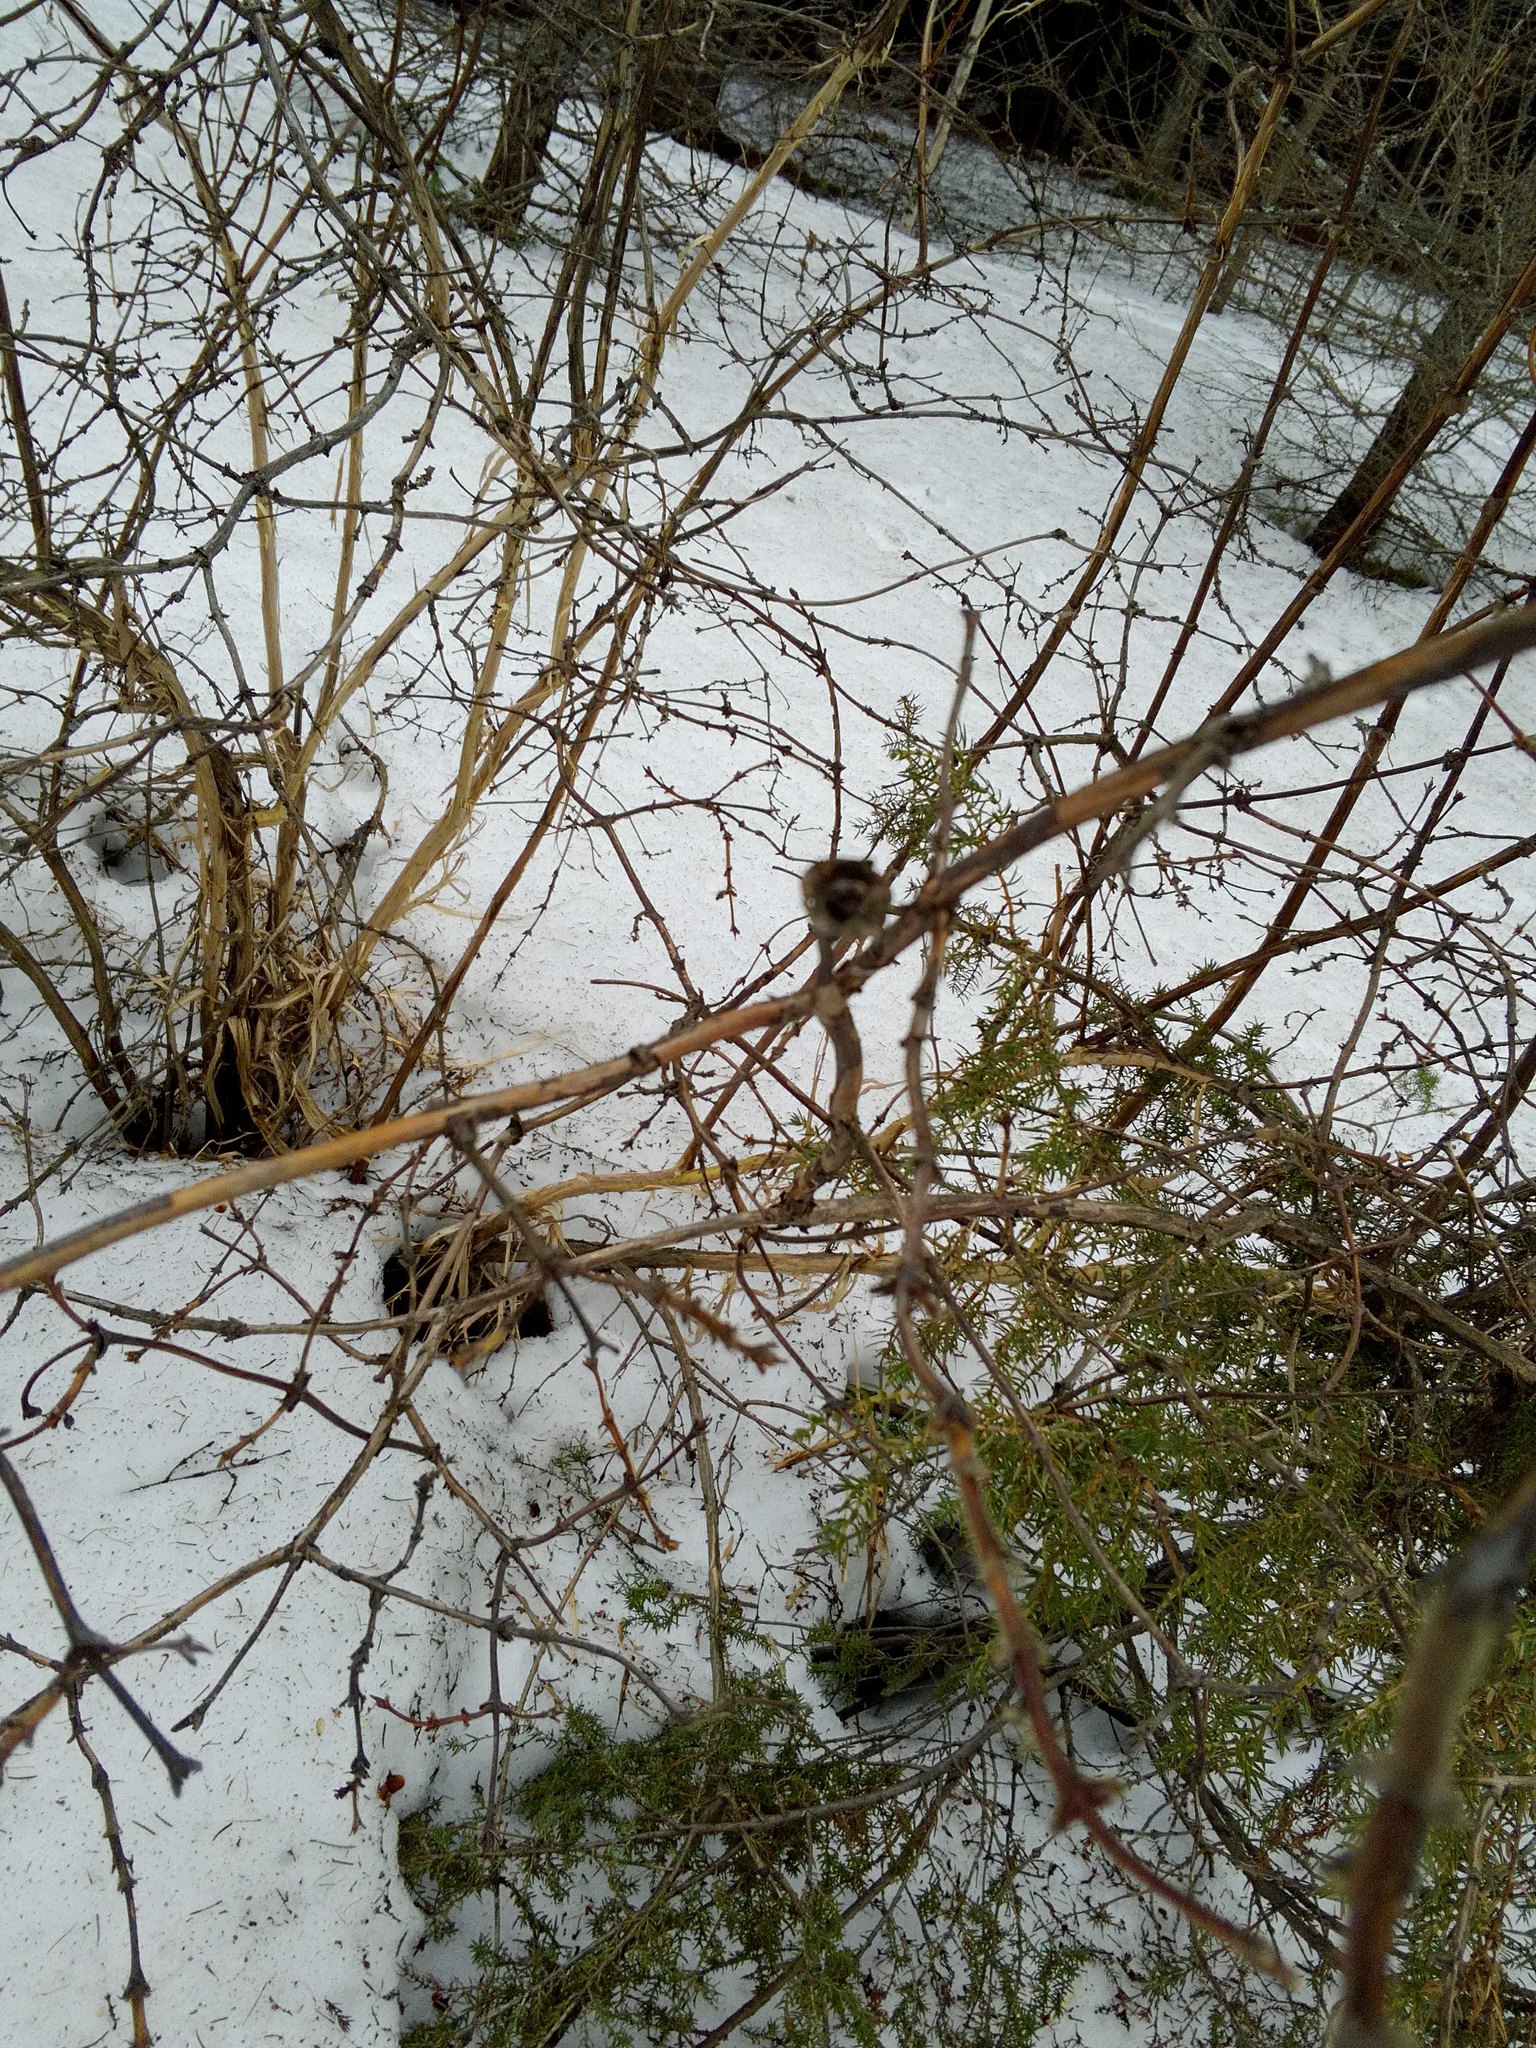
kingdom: Plantae
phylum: Tracheophyta
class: Magnoliopsida
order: Dipsacales
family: Caprifoliaceae
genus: Lonicera
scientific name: Lonicera caerulea
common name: Blue honeysuckle
